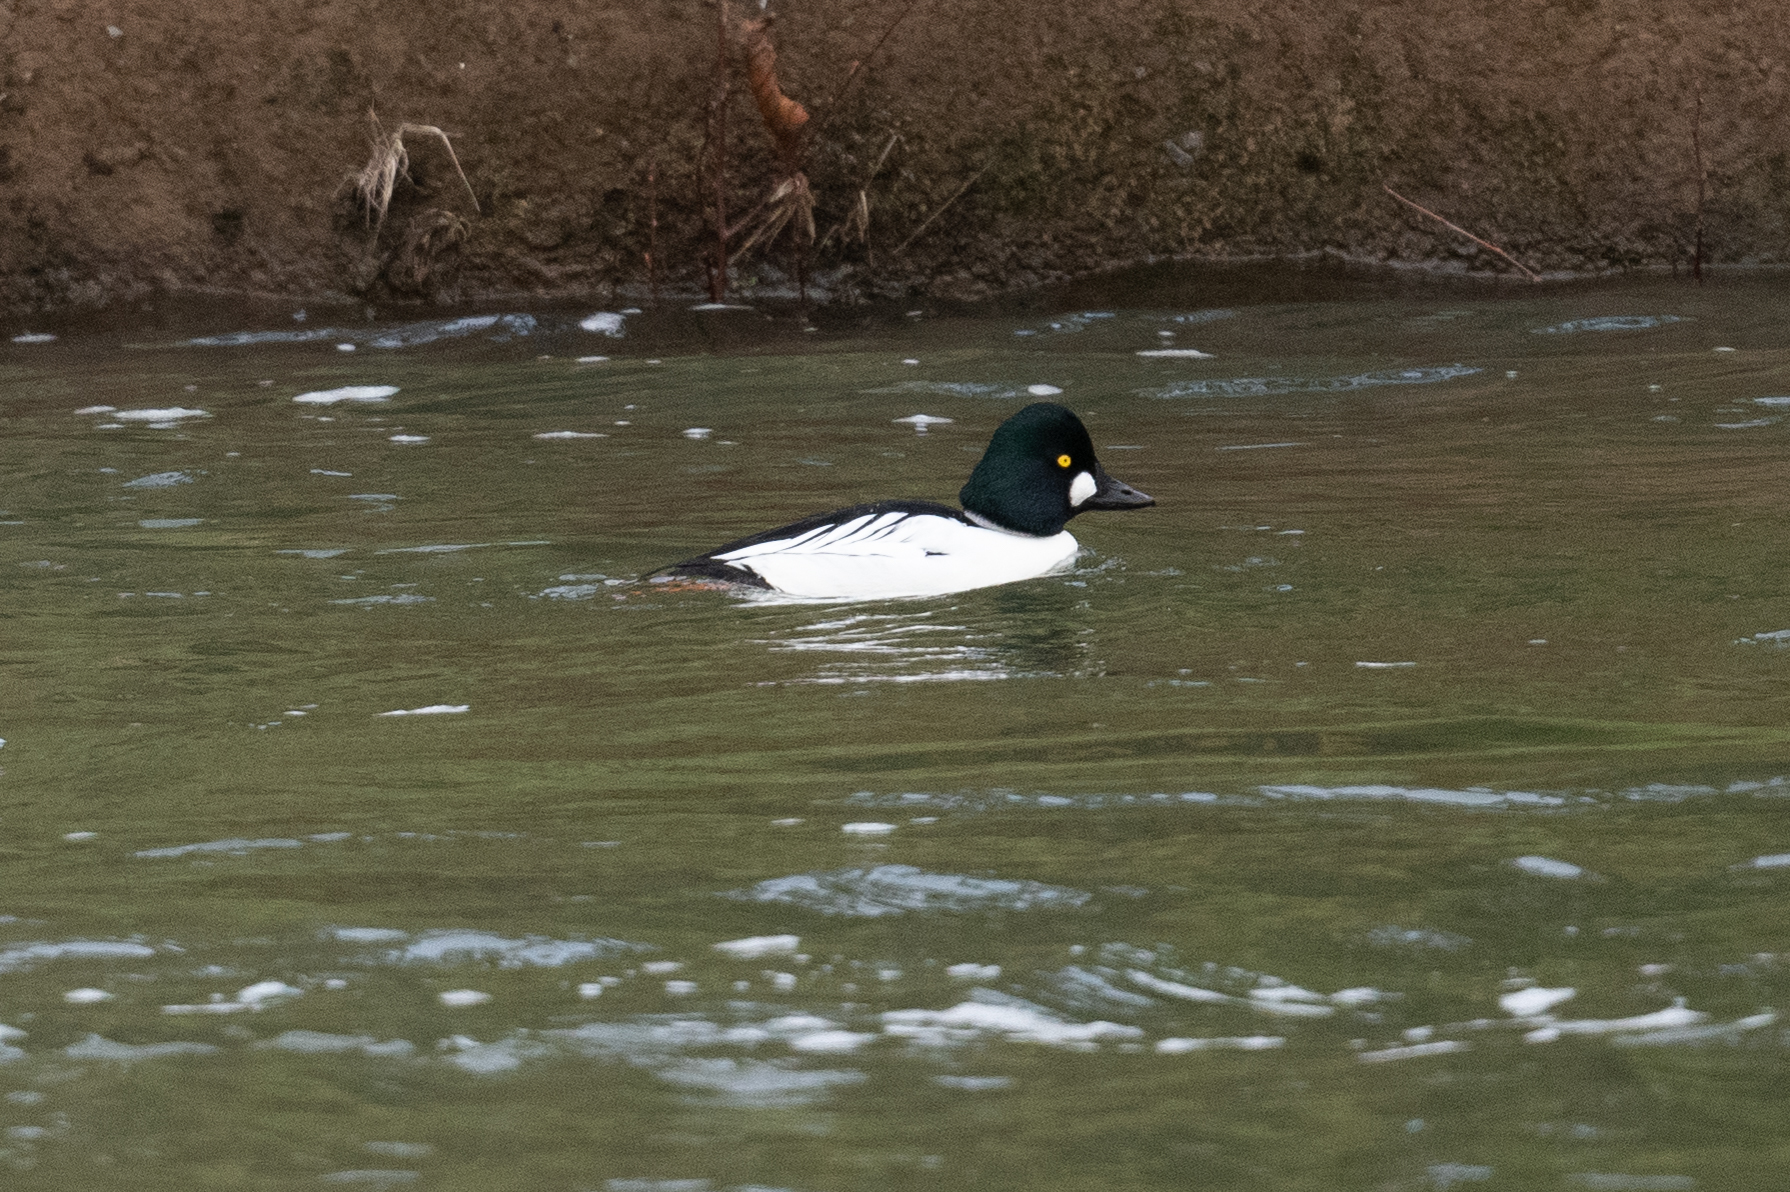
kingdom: Animalia
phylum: Chordata
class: Aves
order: Anseriformes
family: Anatidae
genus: Bucephala
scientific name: Bucephala clangula
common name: Common goldeneye
